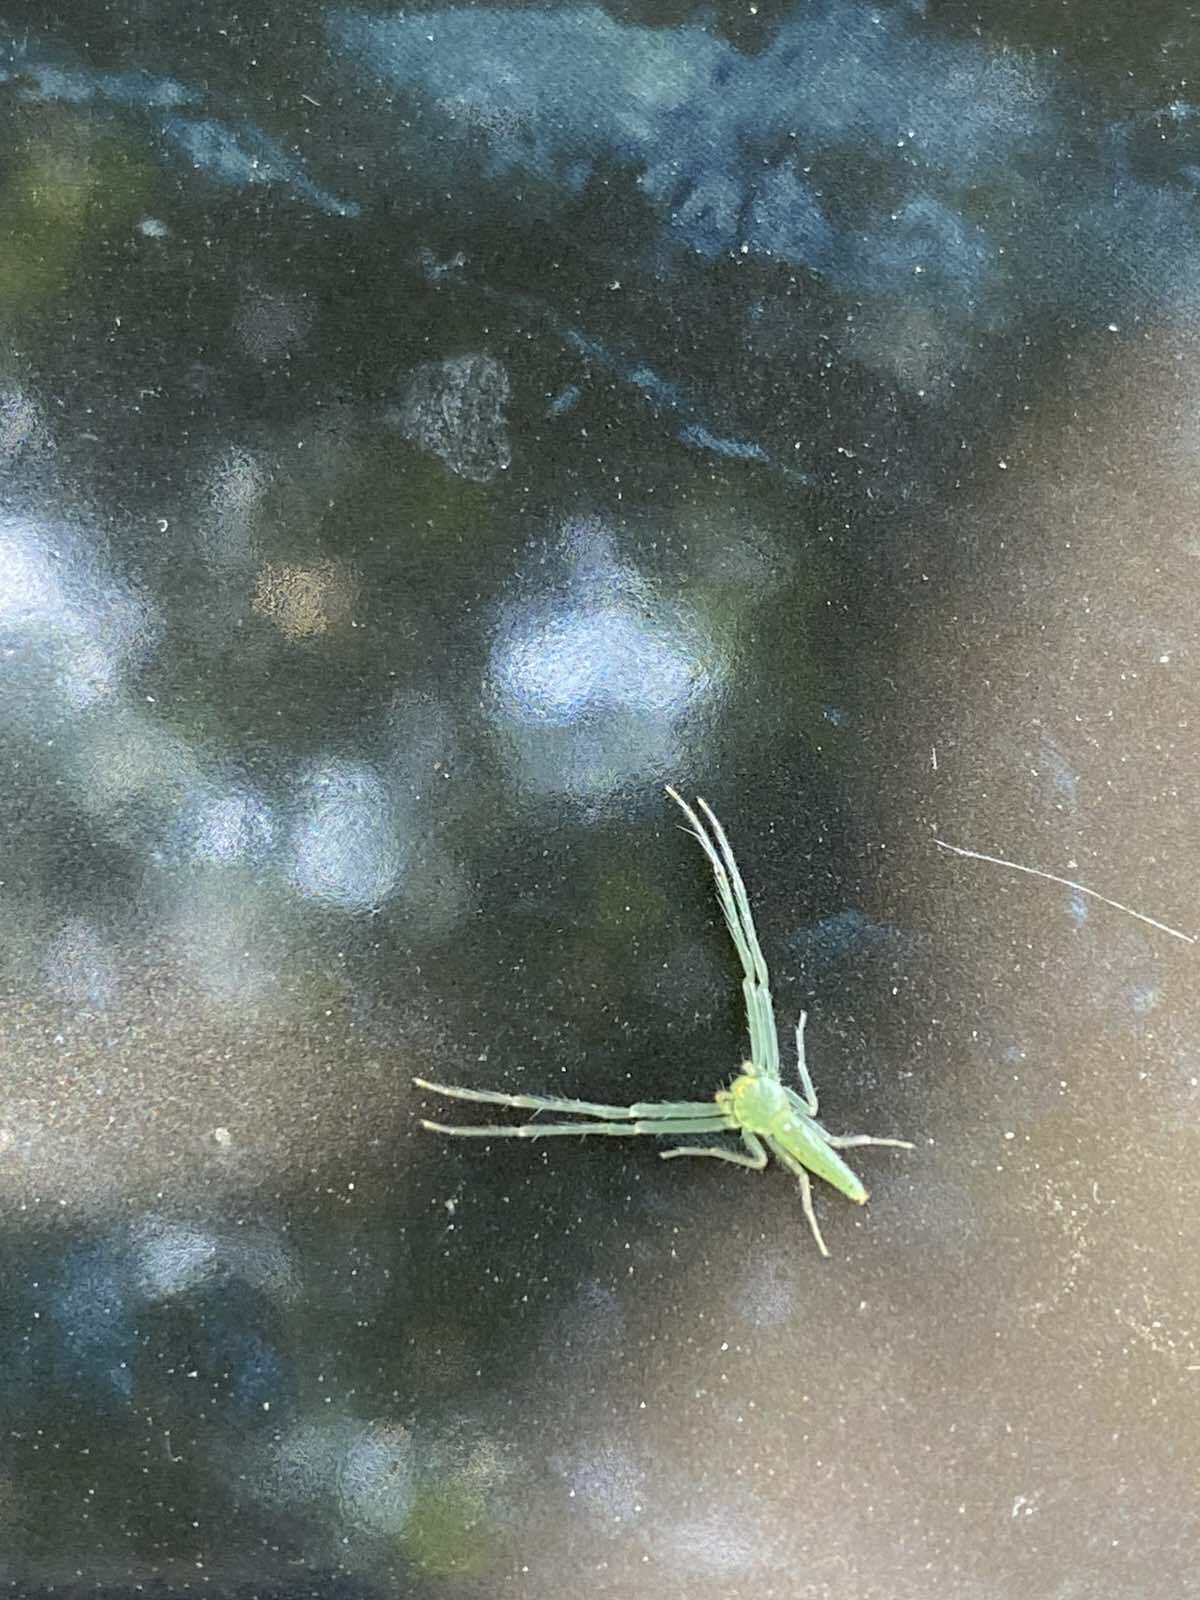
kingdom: Animalia
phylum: Arthropoda
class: Arachnida
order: Araneae
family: Thomisidae
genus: Oxytate
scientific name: Oxytate virens
